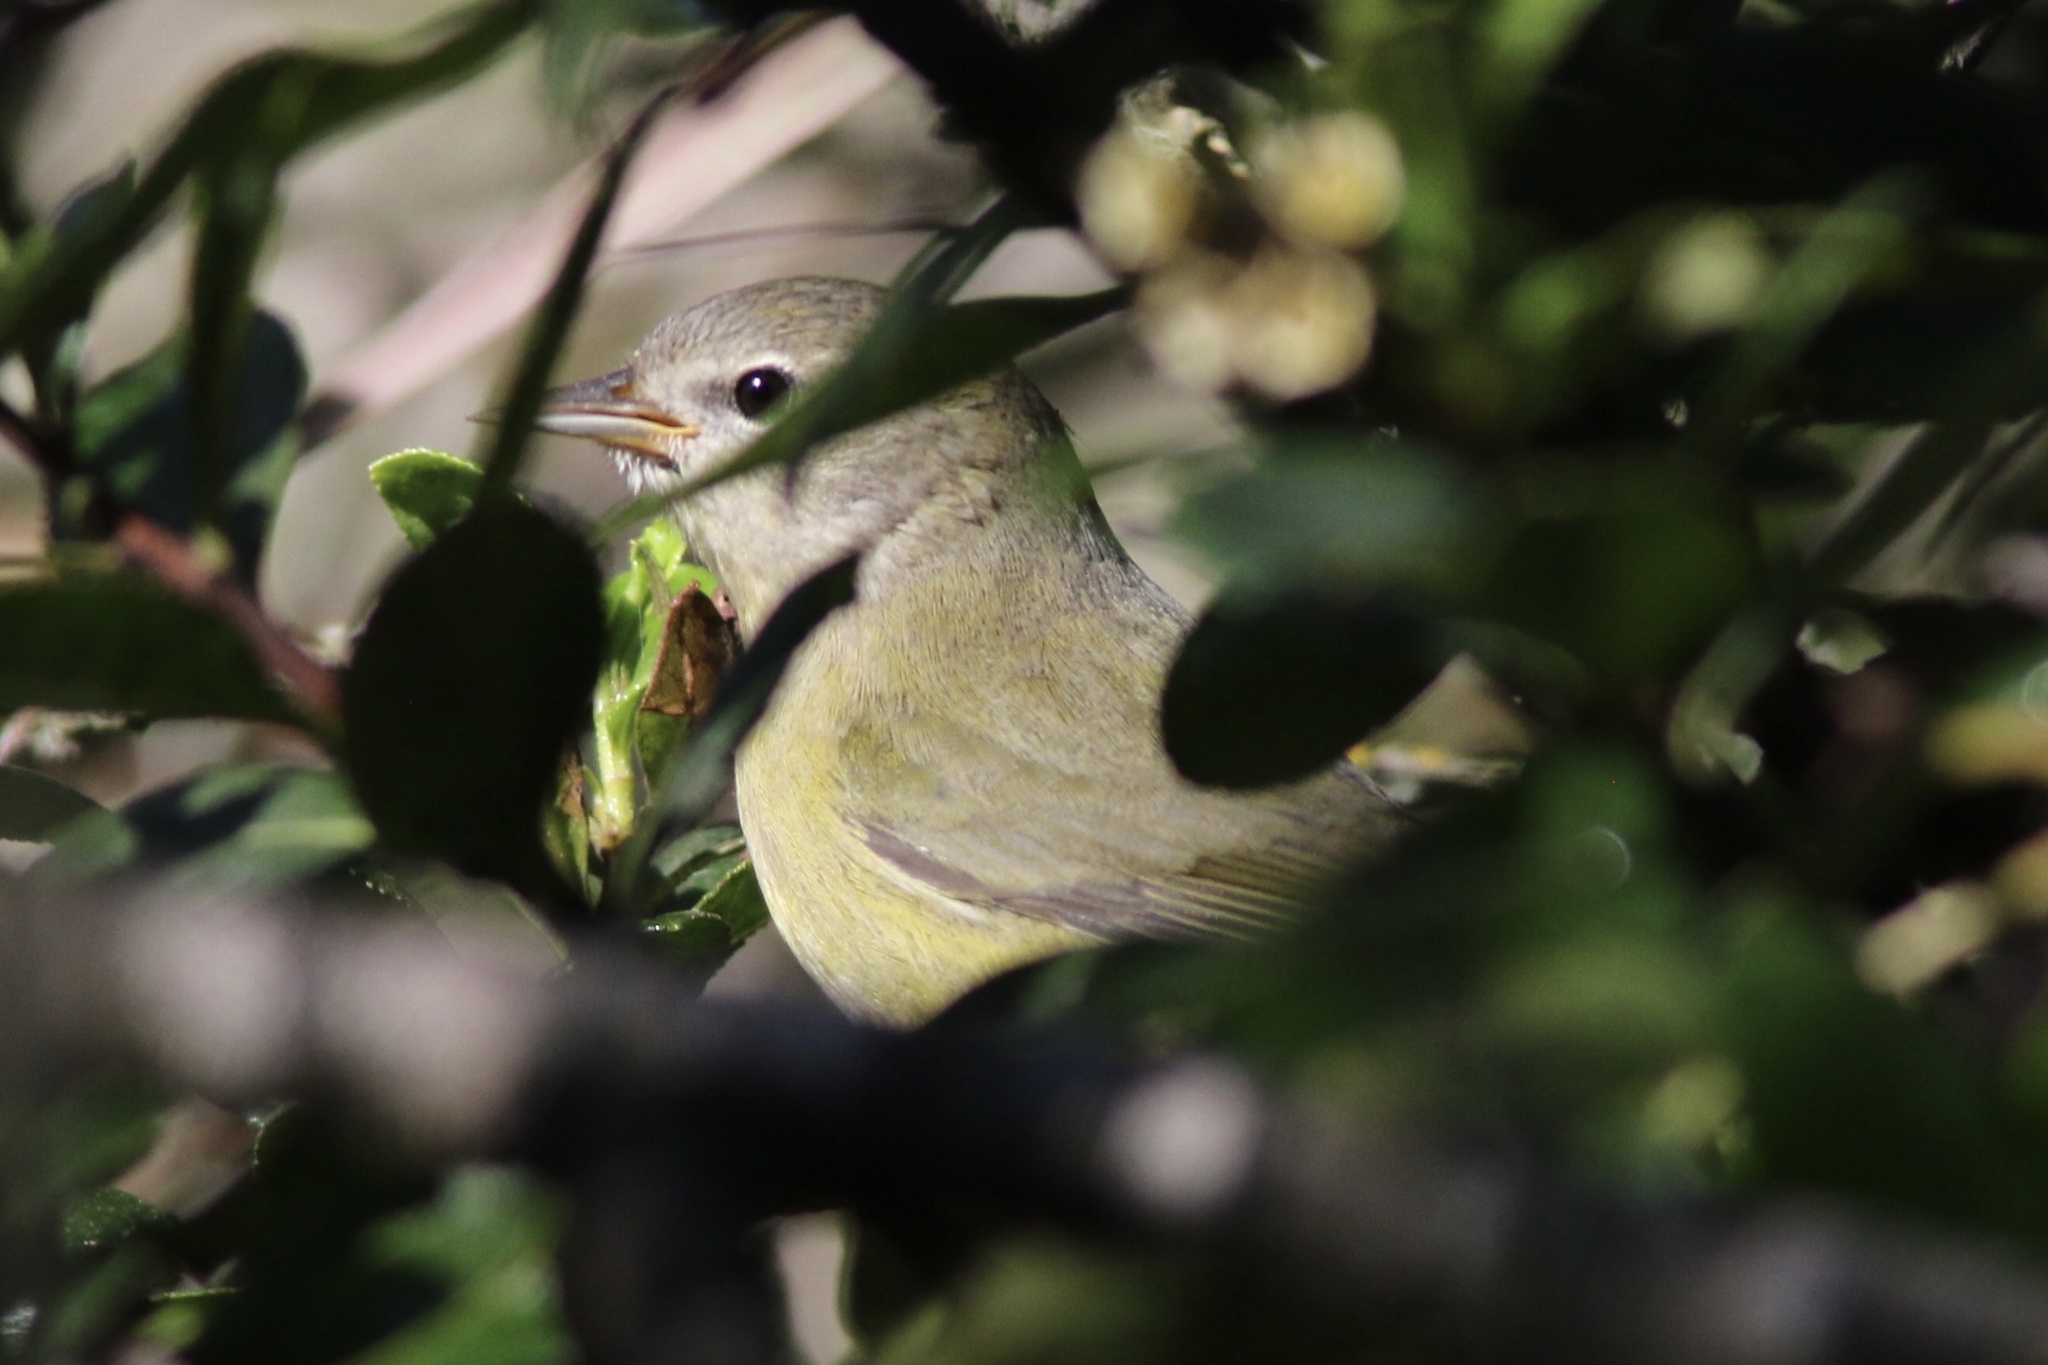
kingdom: Animalia
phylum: Chordata
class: Aves
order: Passeriformes
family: Parulidae
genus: Leiothlypis
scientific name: Leiothlypis celata
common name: Orange-crowned warbler
